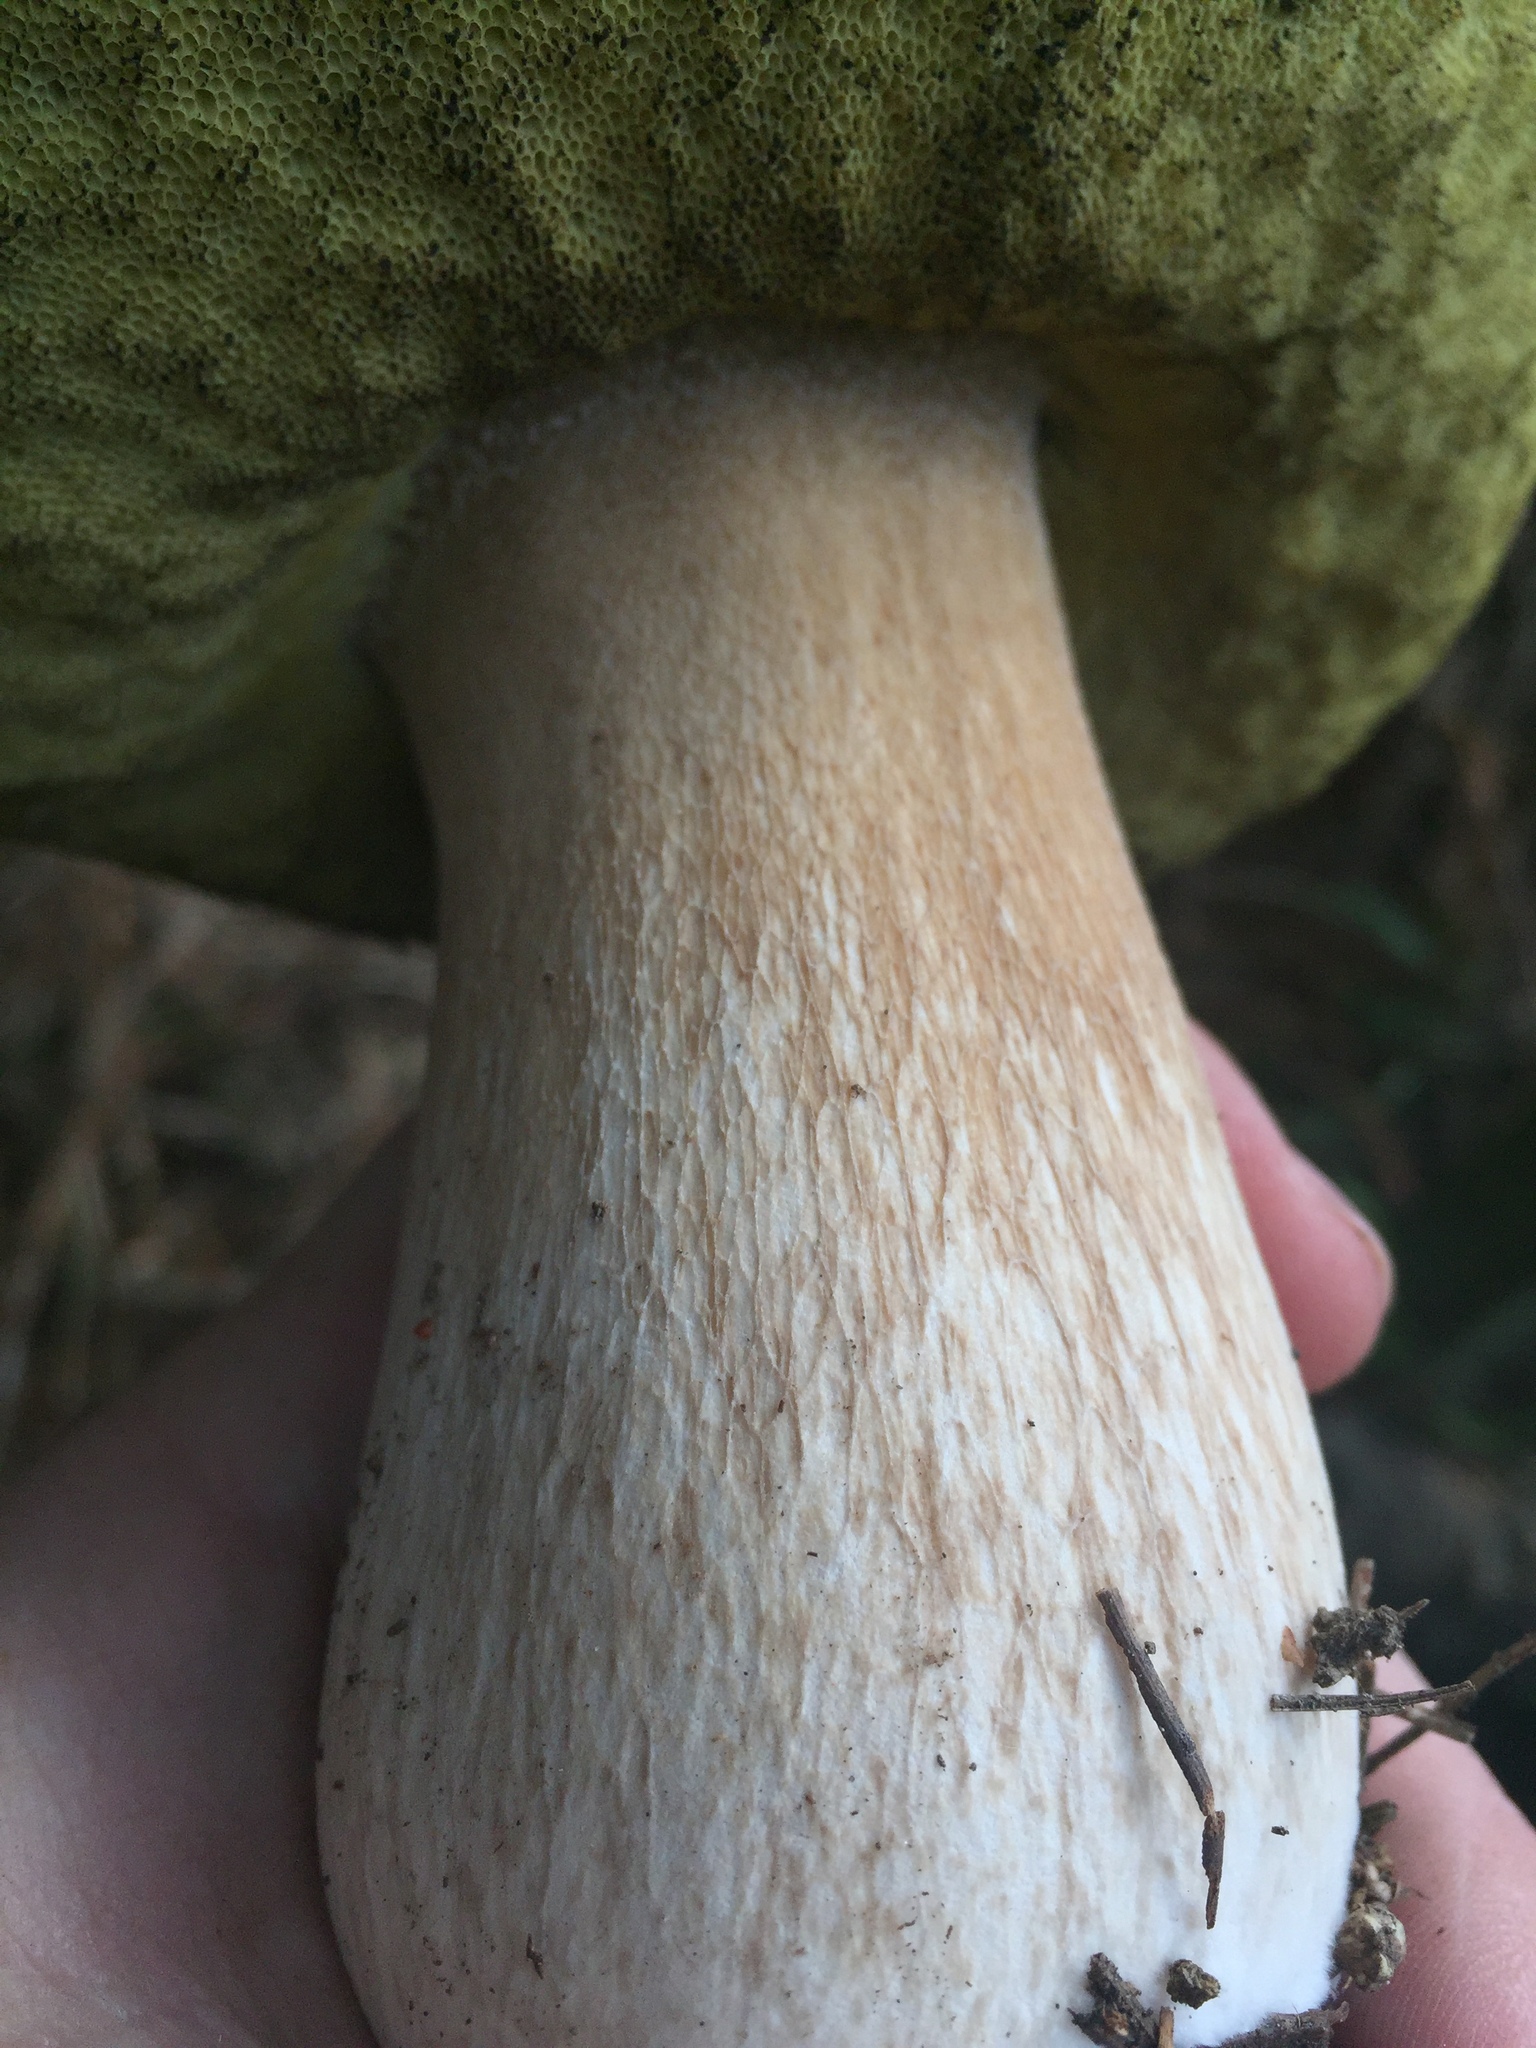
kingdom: Fungi
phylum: Basidiomycota
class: Agaricomycetes
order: Boletales
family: Boletaceae
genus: Boletus
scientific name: Boletus edulis
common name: Cep
